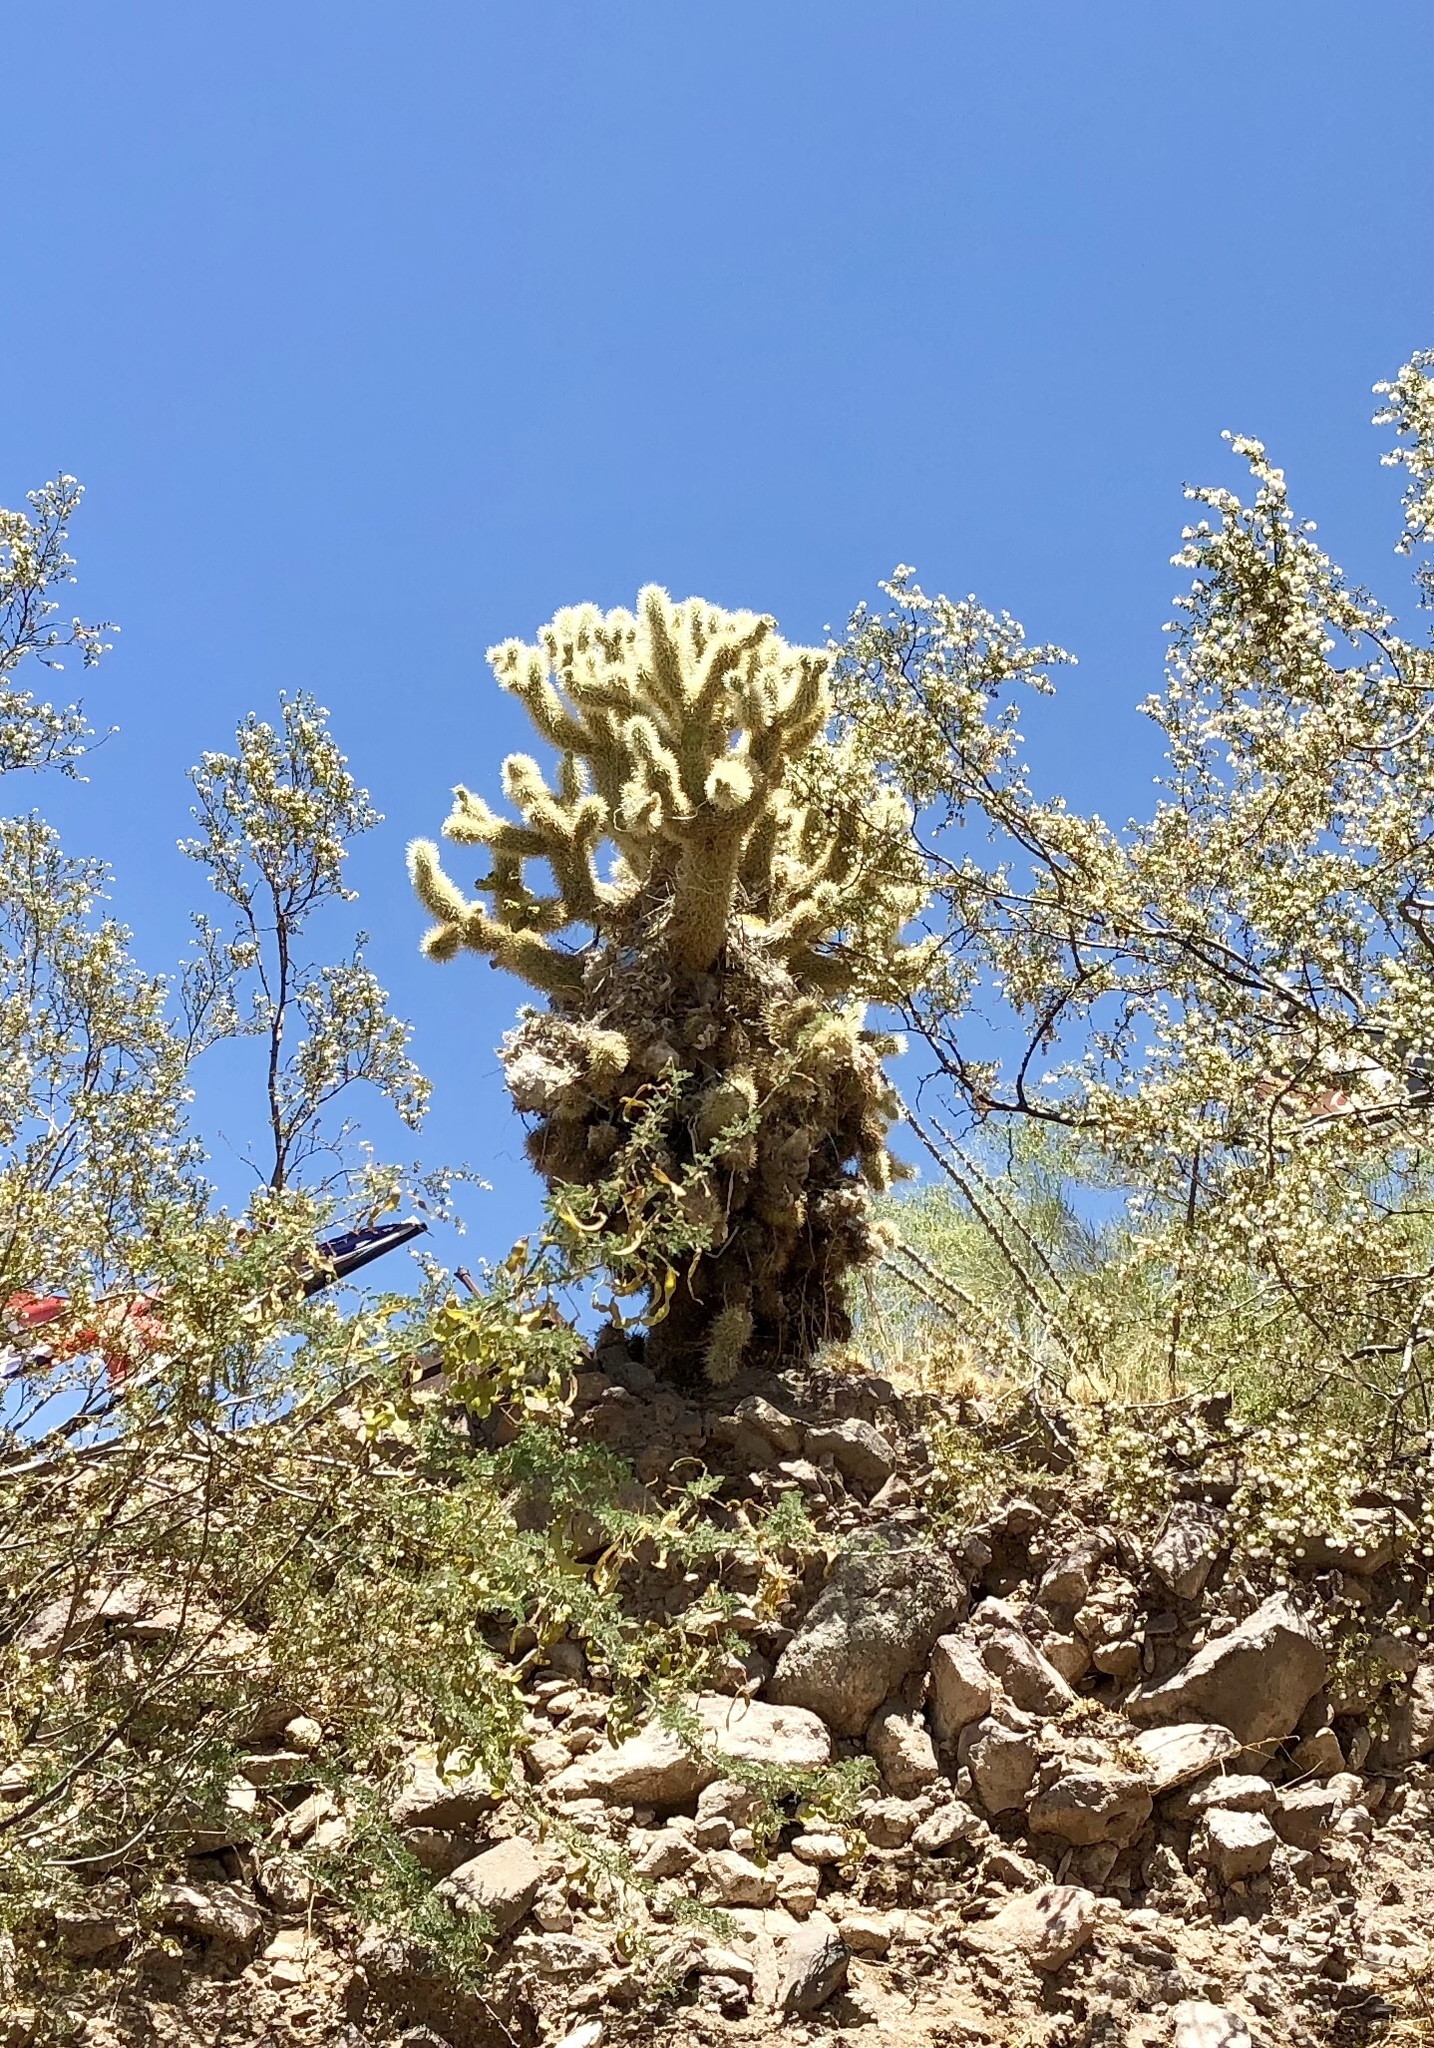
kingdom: Plantae
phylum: Tracheophyta
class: Magnoliopsida
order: Caryophyllales
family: Cactaceae
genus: Cylindropuntia
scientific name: Cylindropuntia fosbergii
